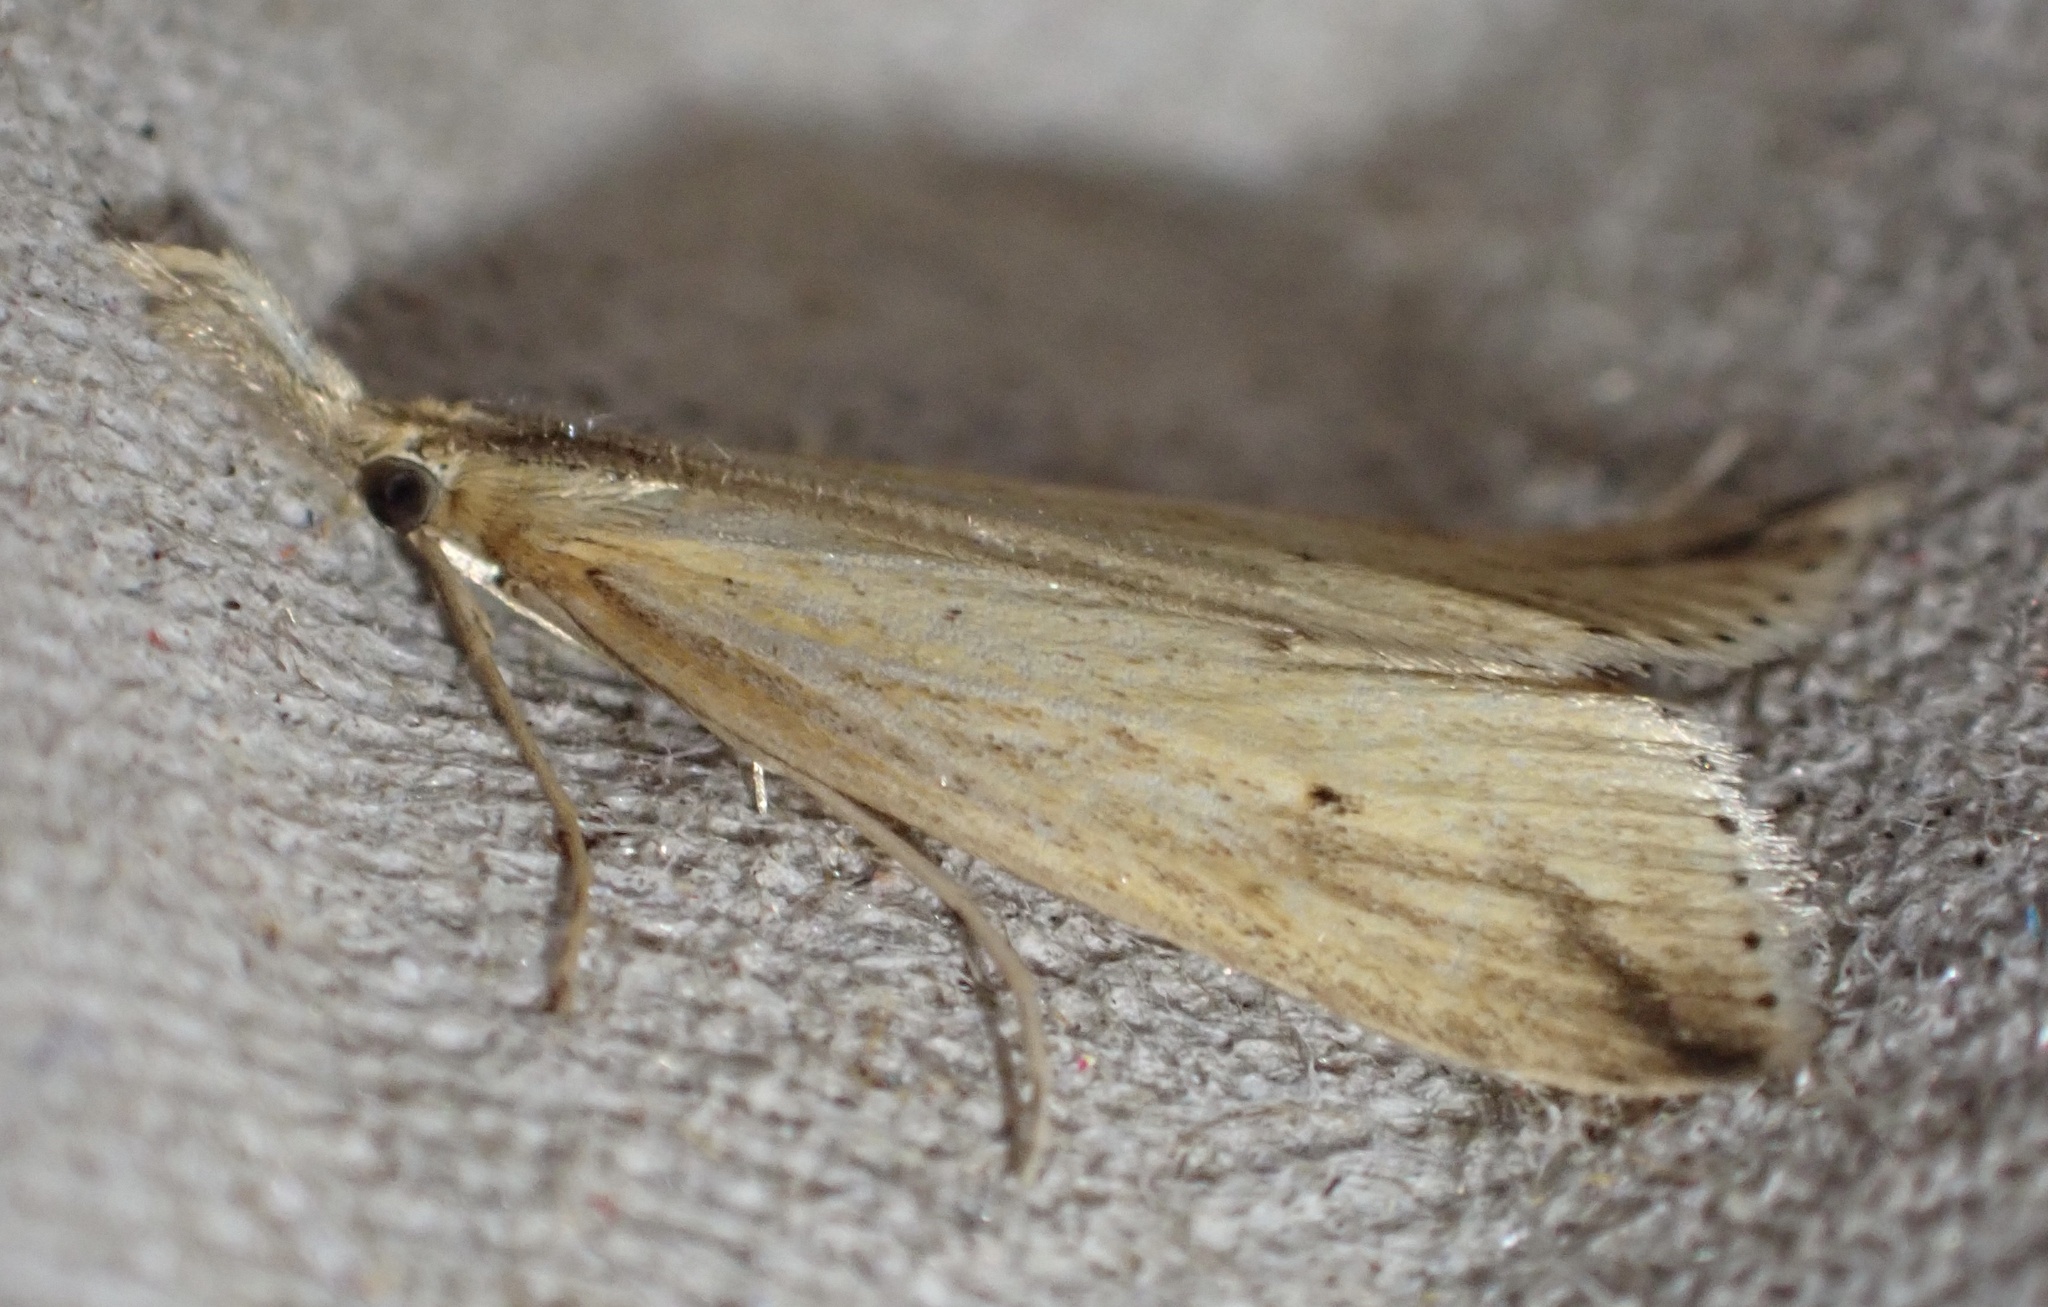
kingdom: Animalia
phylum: Arthropoda
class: Insecta
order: Lepidoptera
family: Crambidae
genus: Donacaula
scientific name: Donacaula forficella
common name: Pale water-veneer
